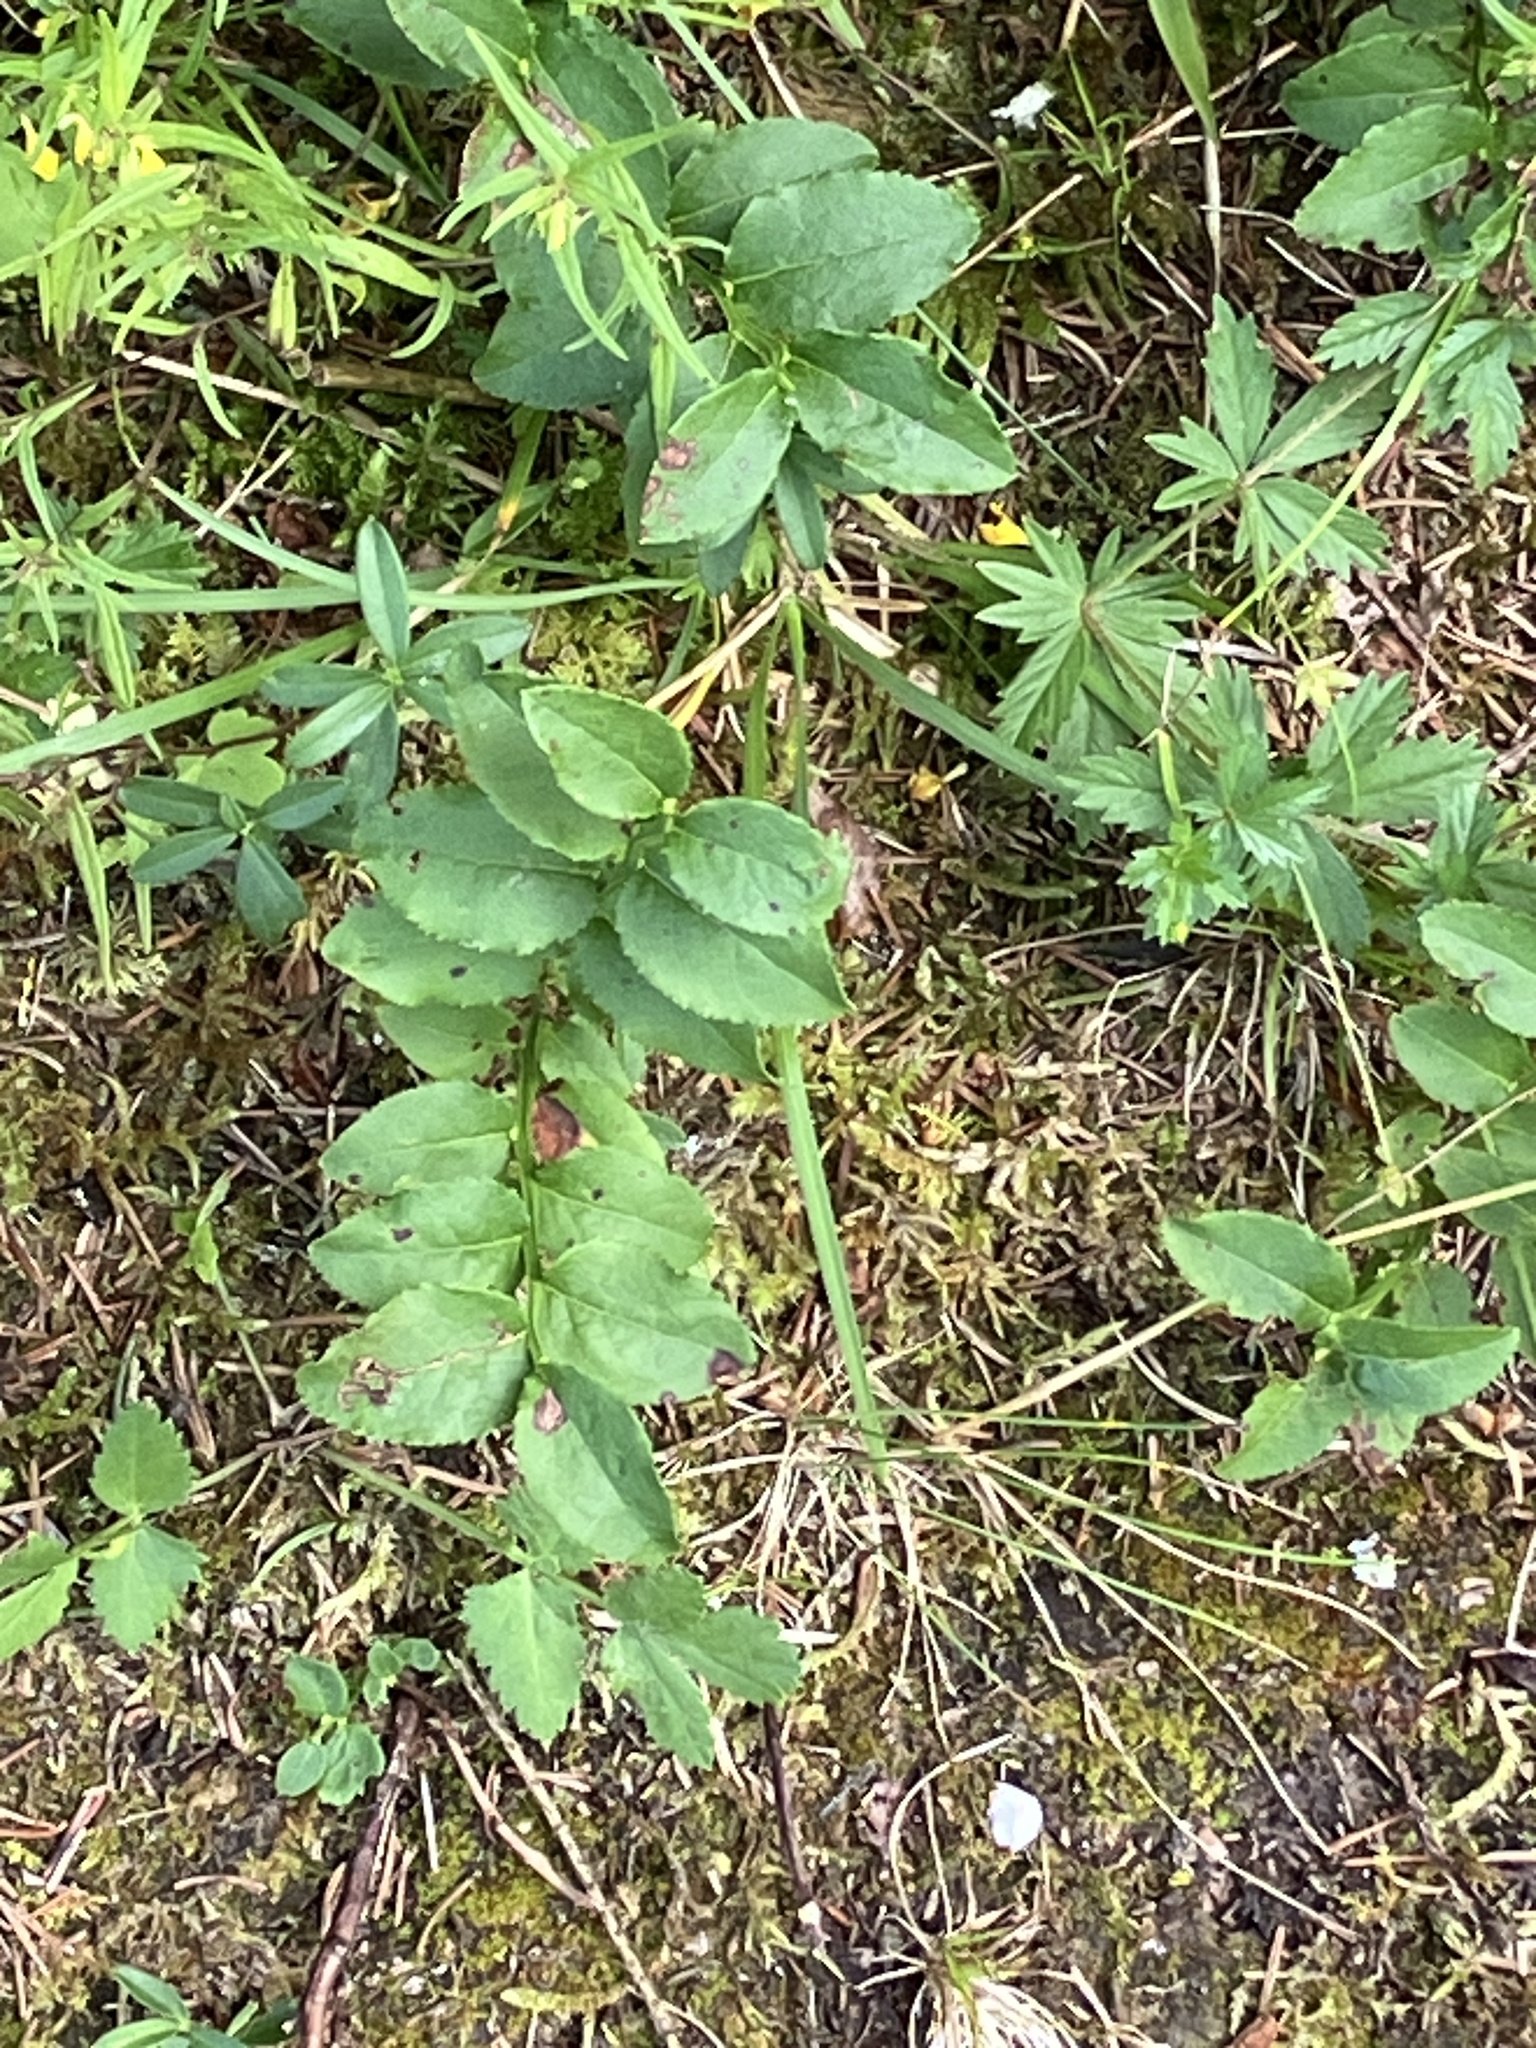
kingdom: Plantae
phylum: Tracheophyta
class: Magnoliopsida
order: Ericales
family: Ericaceae
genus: Vaccinium
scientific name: Vaccinium myrtillus
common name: Bilberry
